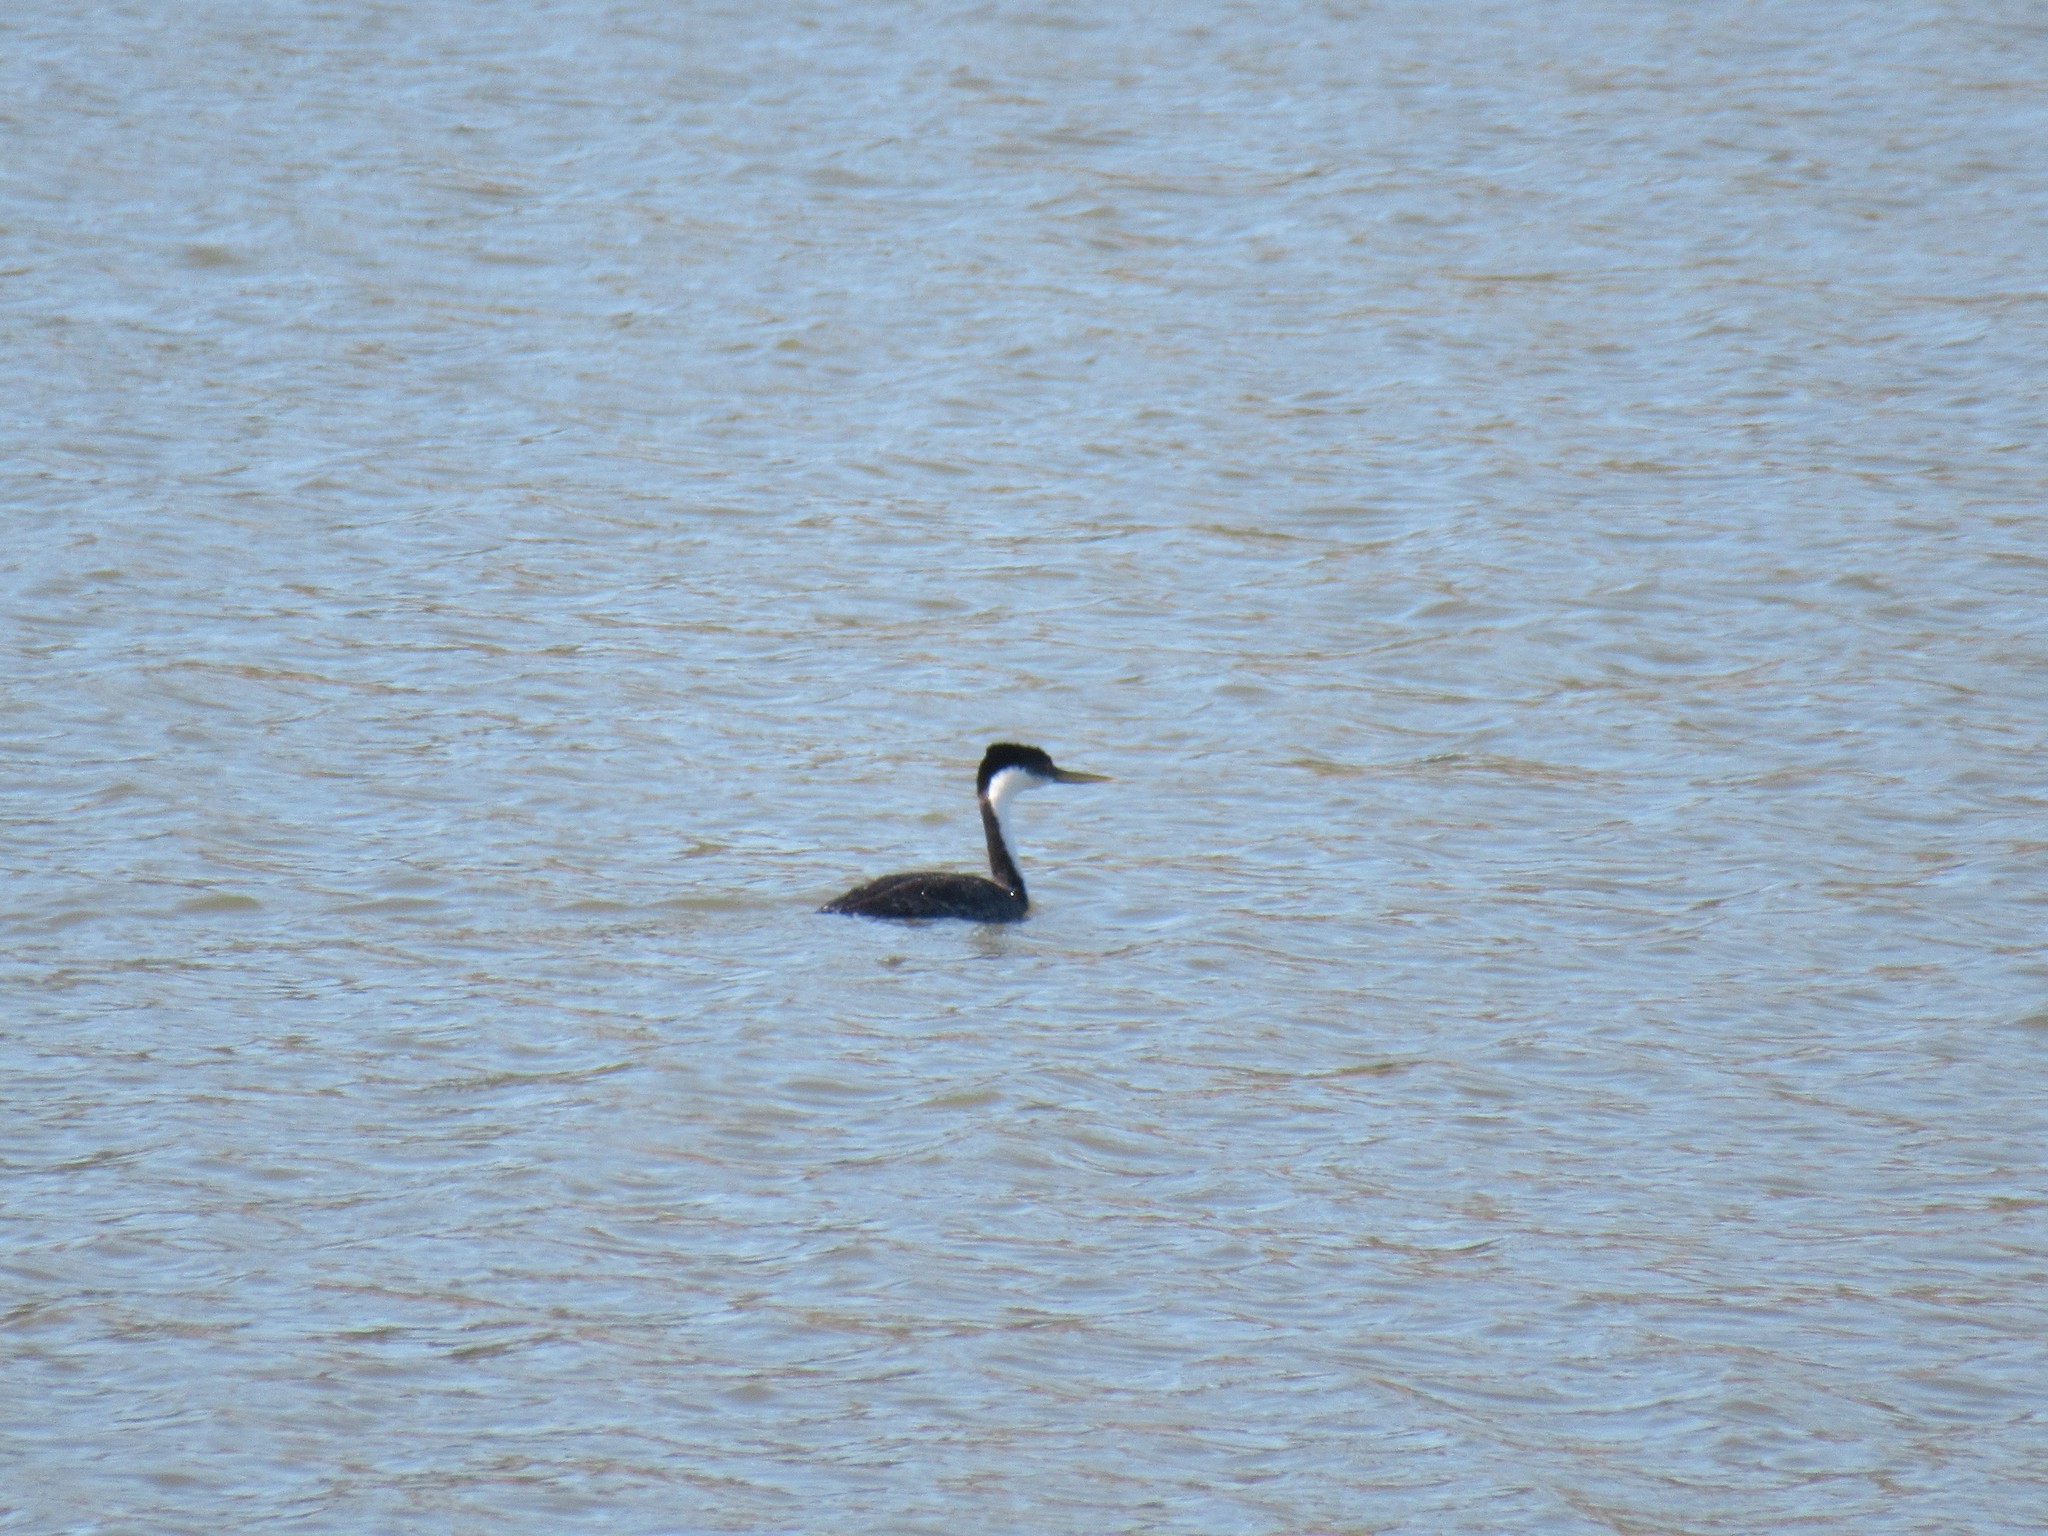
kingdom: Animalia
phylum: Chordata
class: Aves
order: Podicipediformes
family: Podicipedidae
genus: Aechmophorus
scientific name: Aechmophorus occidentalis
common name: Western grebe
